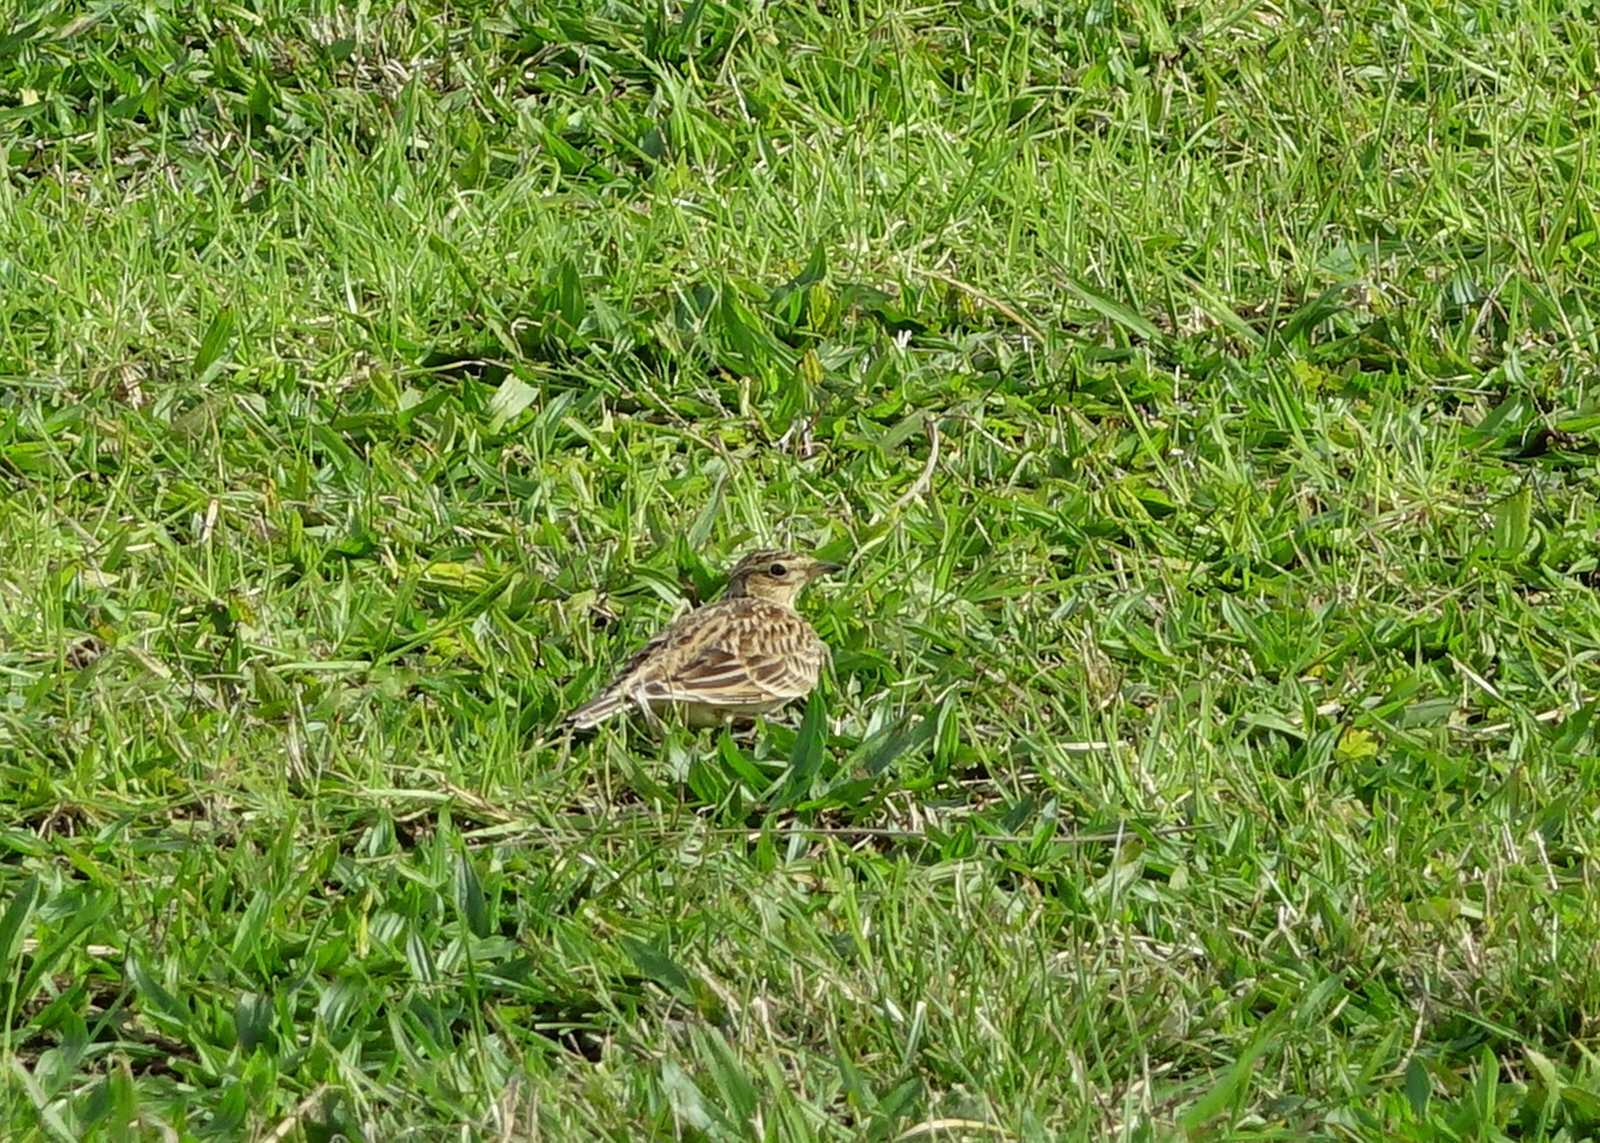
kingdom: Animalia
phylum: Chordata
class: Aves
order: Passeriformes
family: Alaudidae
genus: Alauda
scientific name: Alauda arvensis
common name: Eurasian skylark
